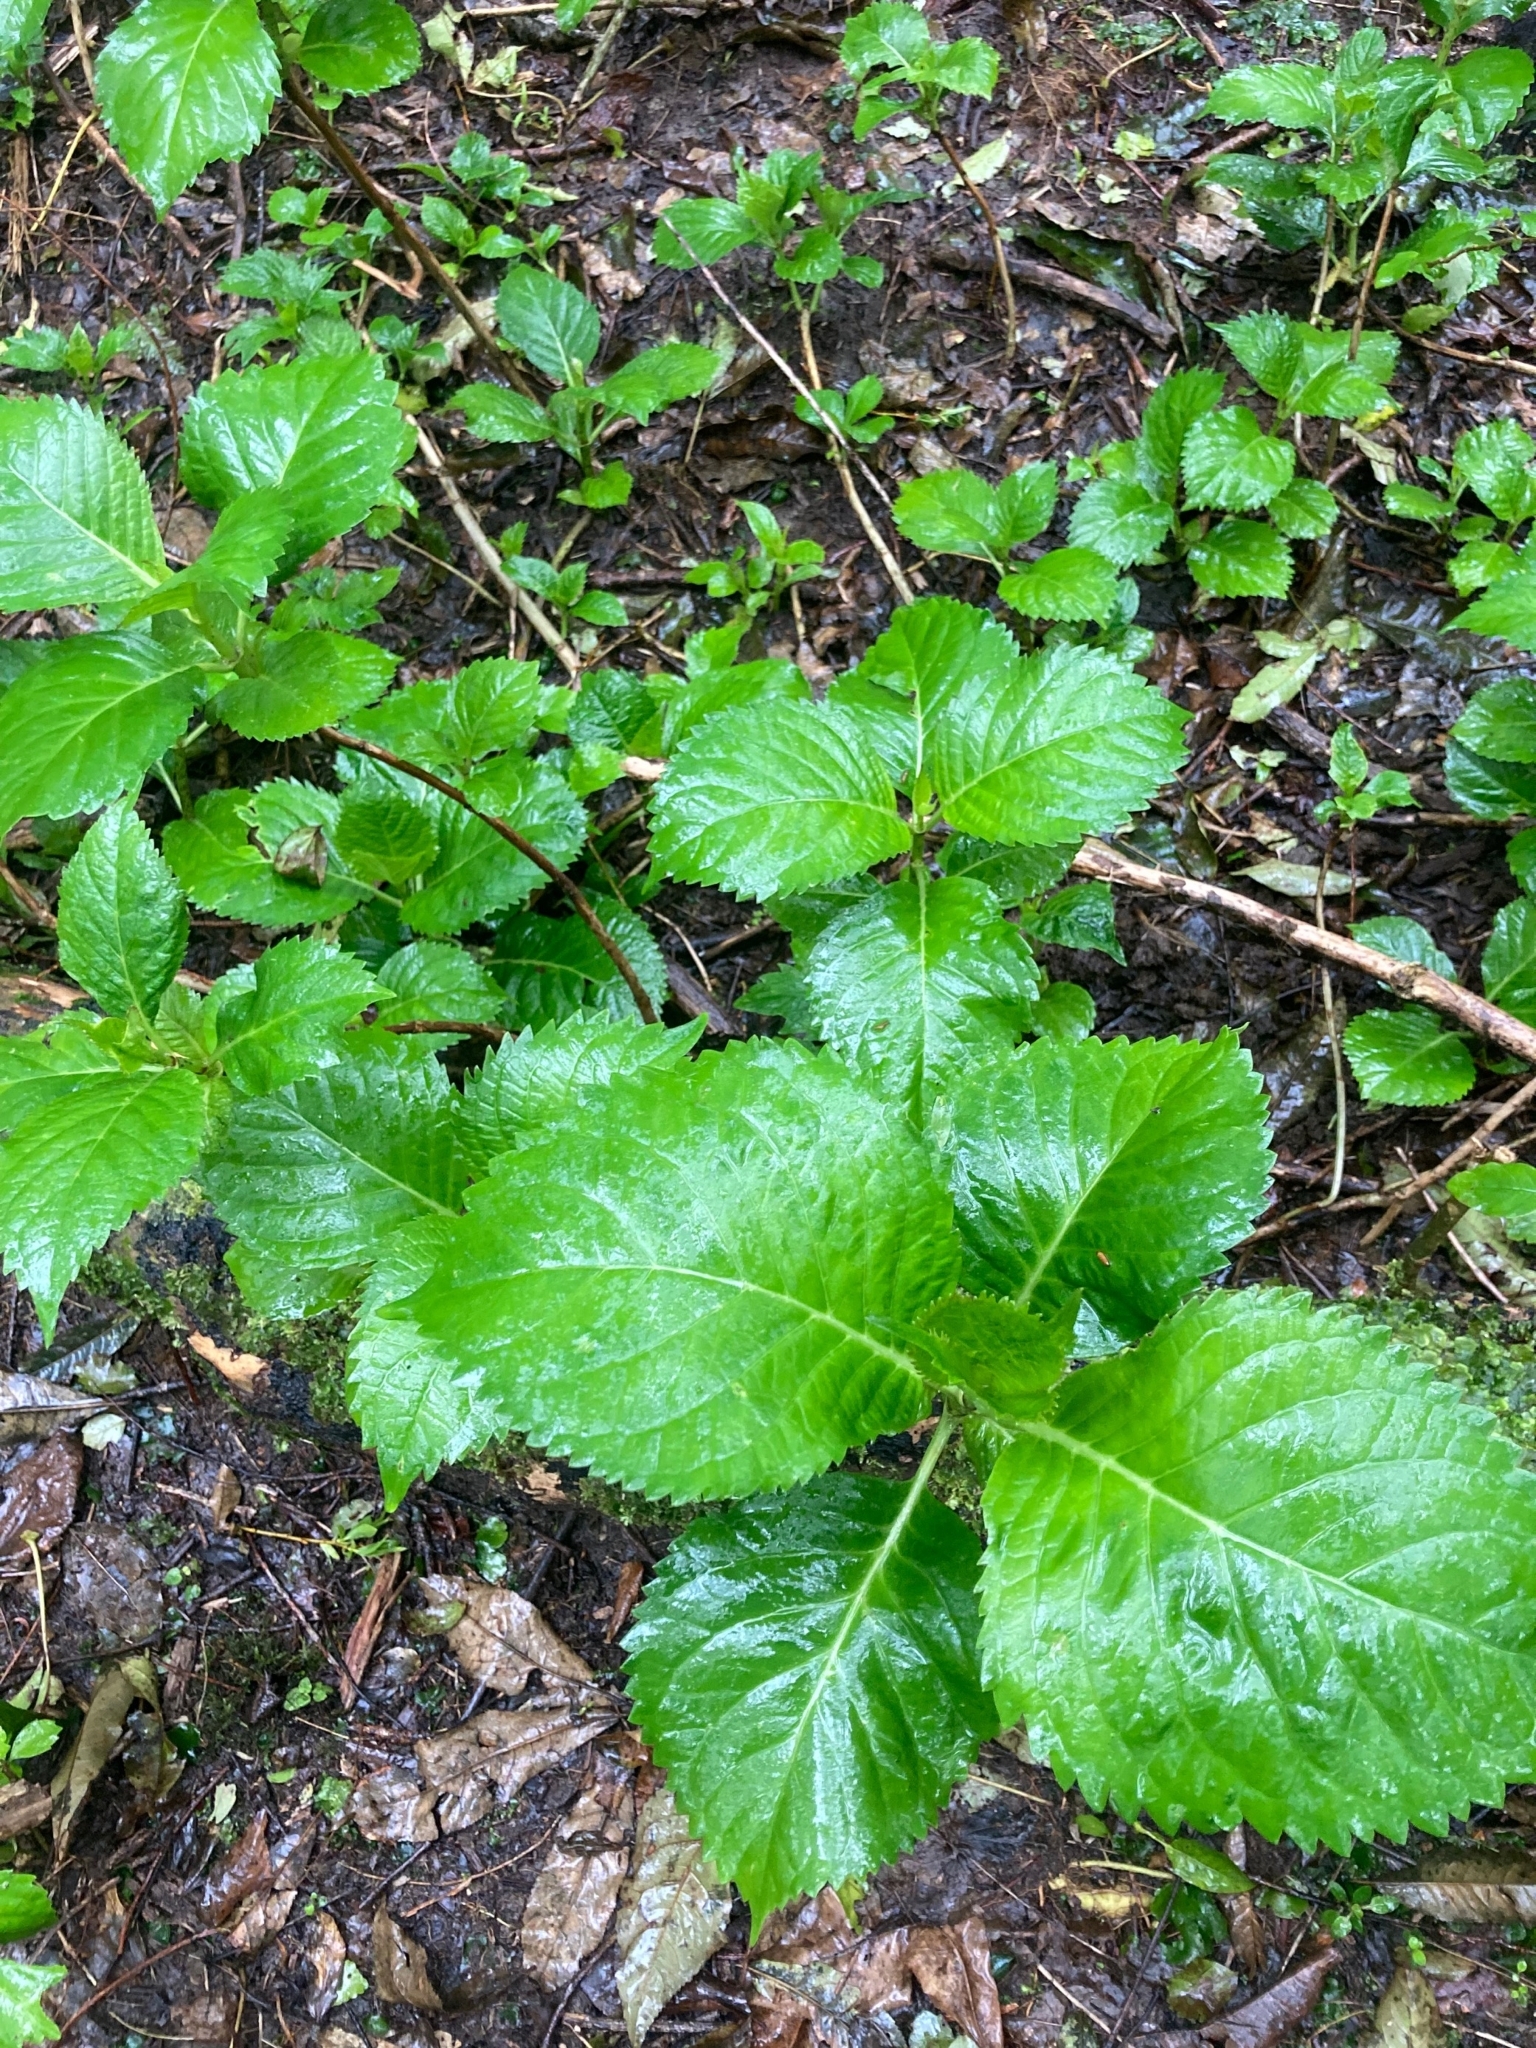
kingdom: Plantae
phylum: Tracheophyta
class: Magnoliopsida
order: Cornales
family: Hydrangeaceae
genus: Hydrangea
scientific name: Hydrangea macrophylla
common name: Hydrangea
